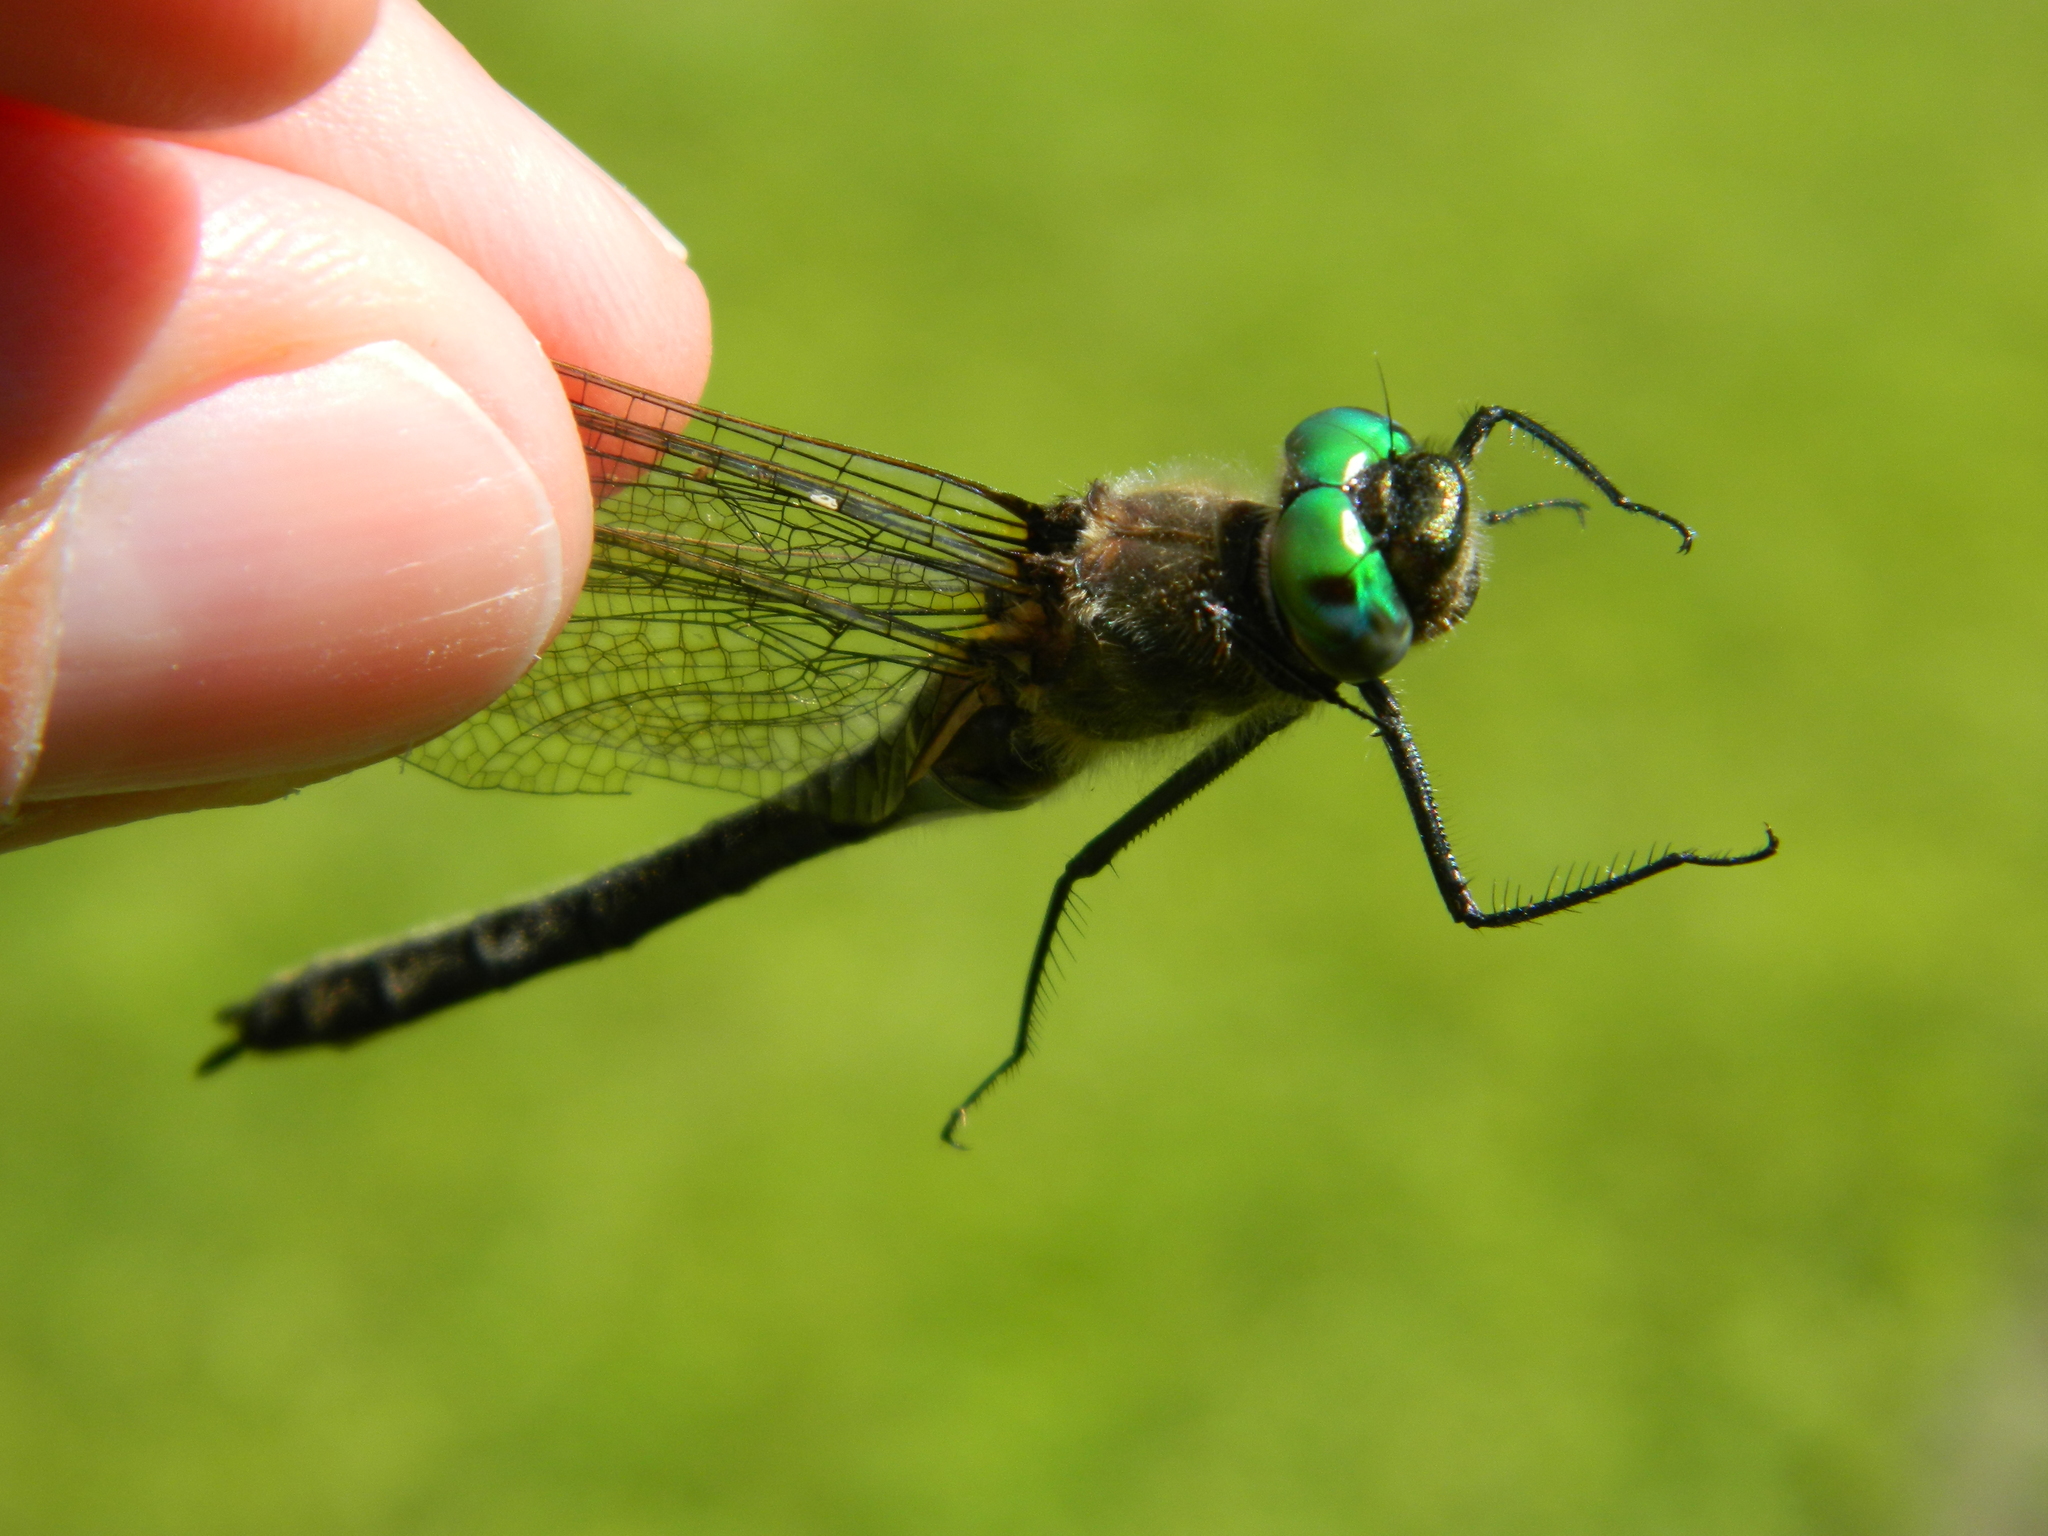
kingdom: Animalia
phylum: Arthropoda
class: Insecta
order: Odonata
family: Corduliidae
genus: Cordulia
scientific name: Cordulia shurtleffii
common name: American emerald
